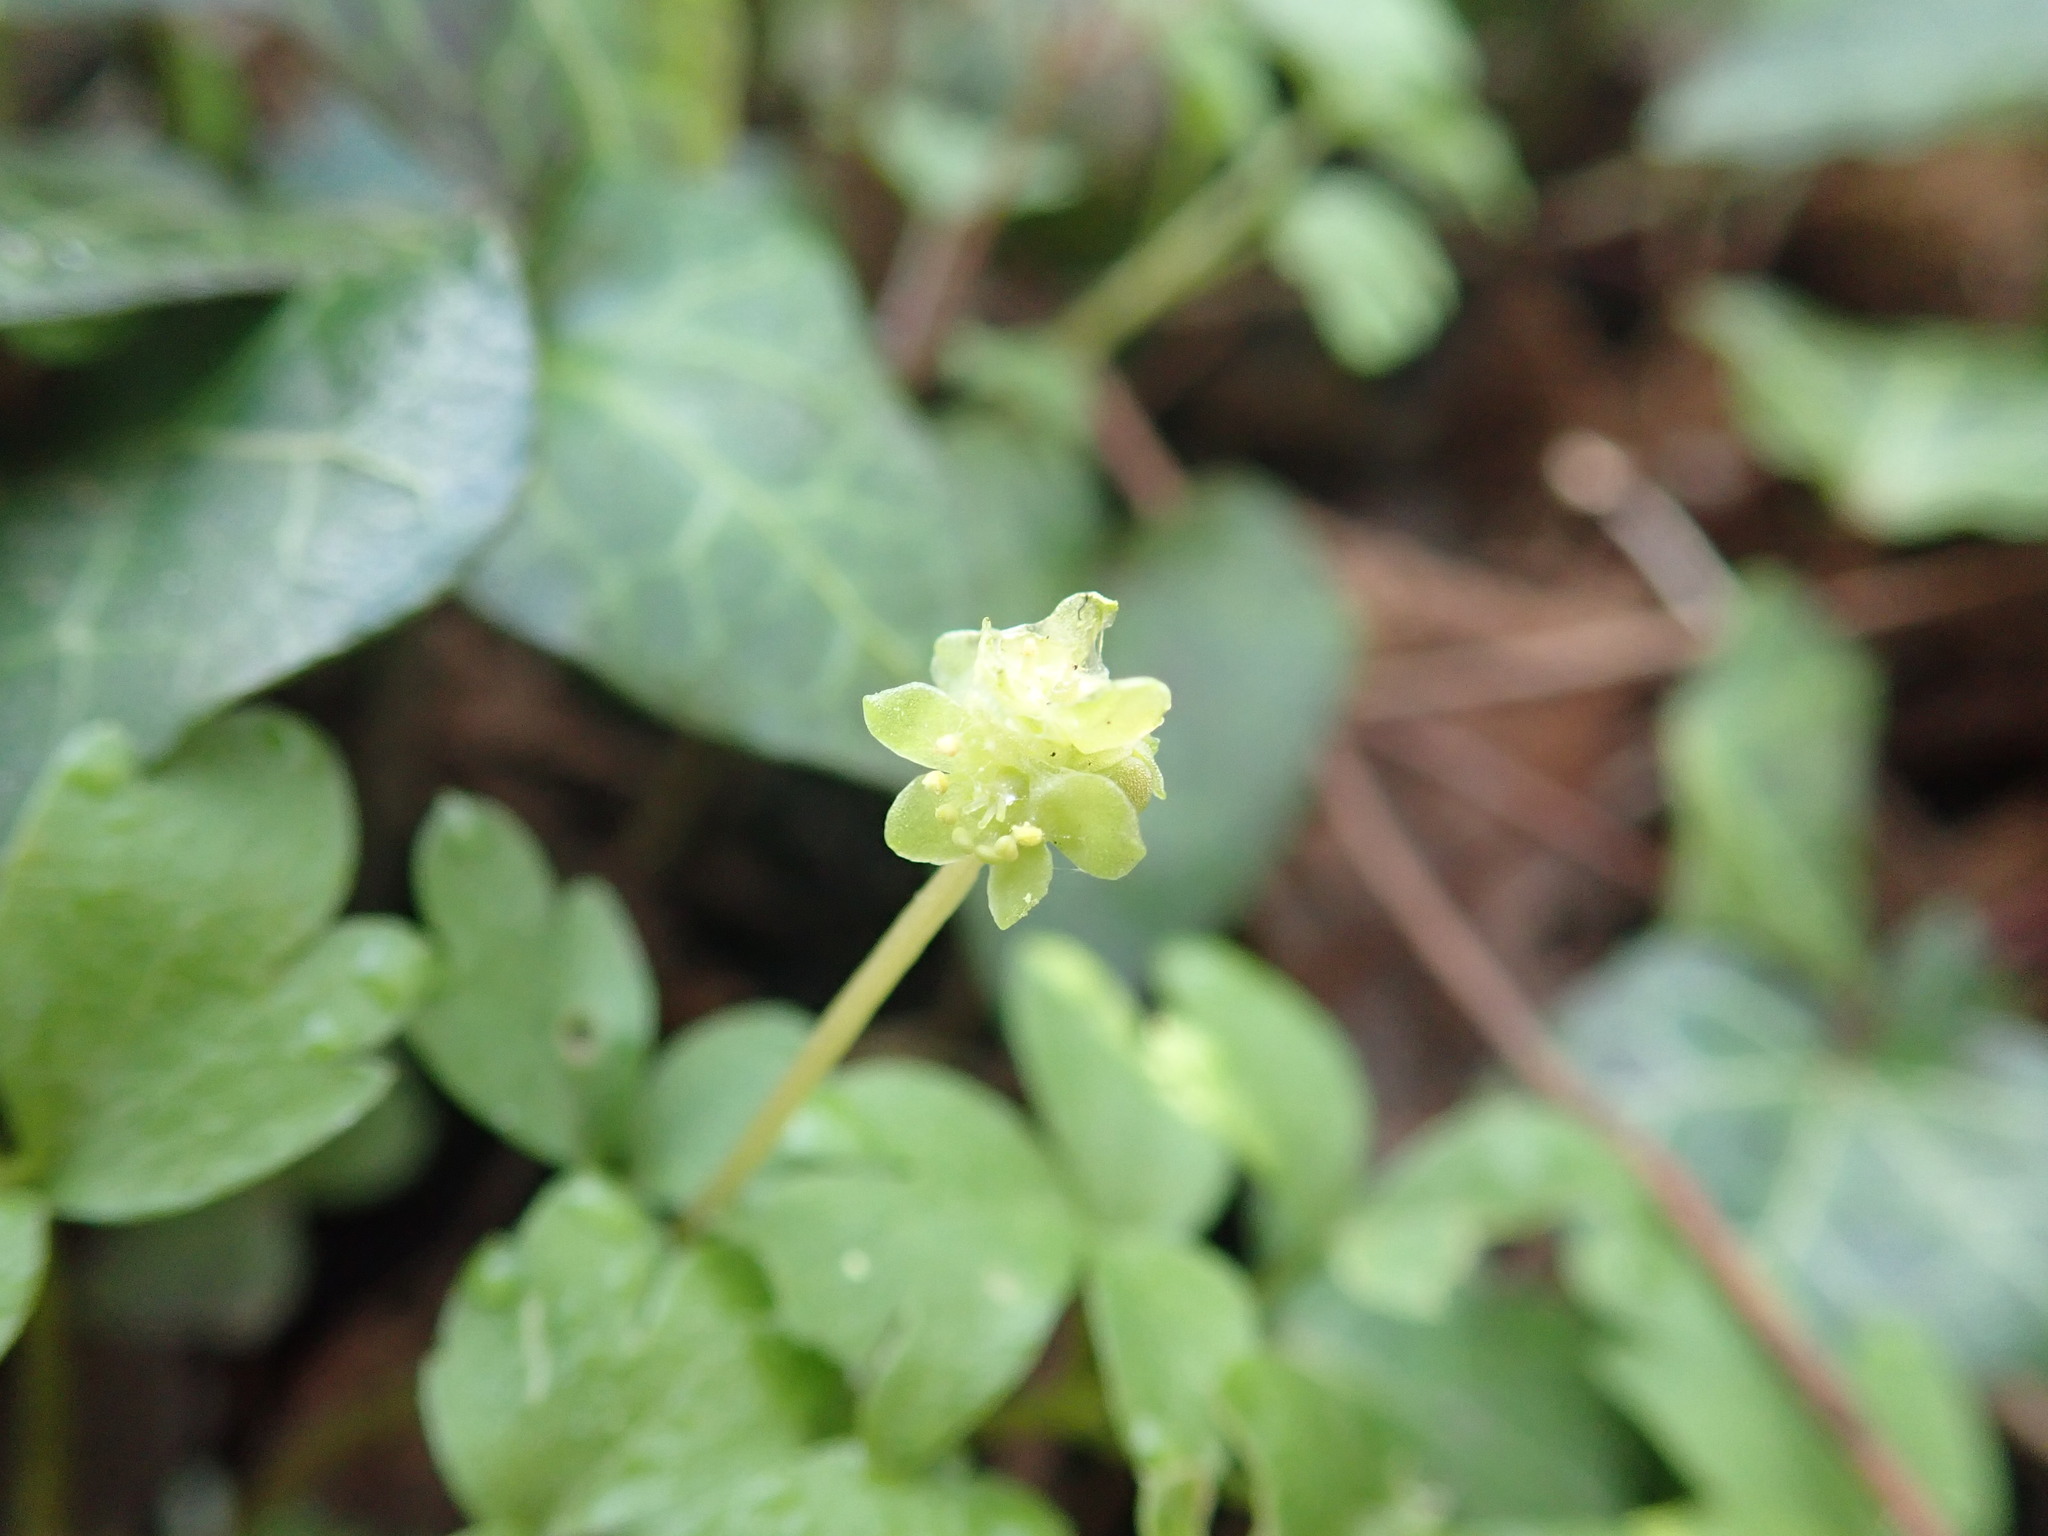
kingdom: Plantae
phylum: Tracheophyta
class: Magnoliopsida
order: Dipsacales
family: Viburnaceae
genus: Adoxa
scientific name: Adoxa moschatellina
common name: Moschatel
